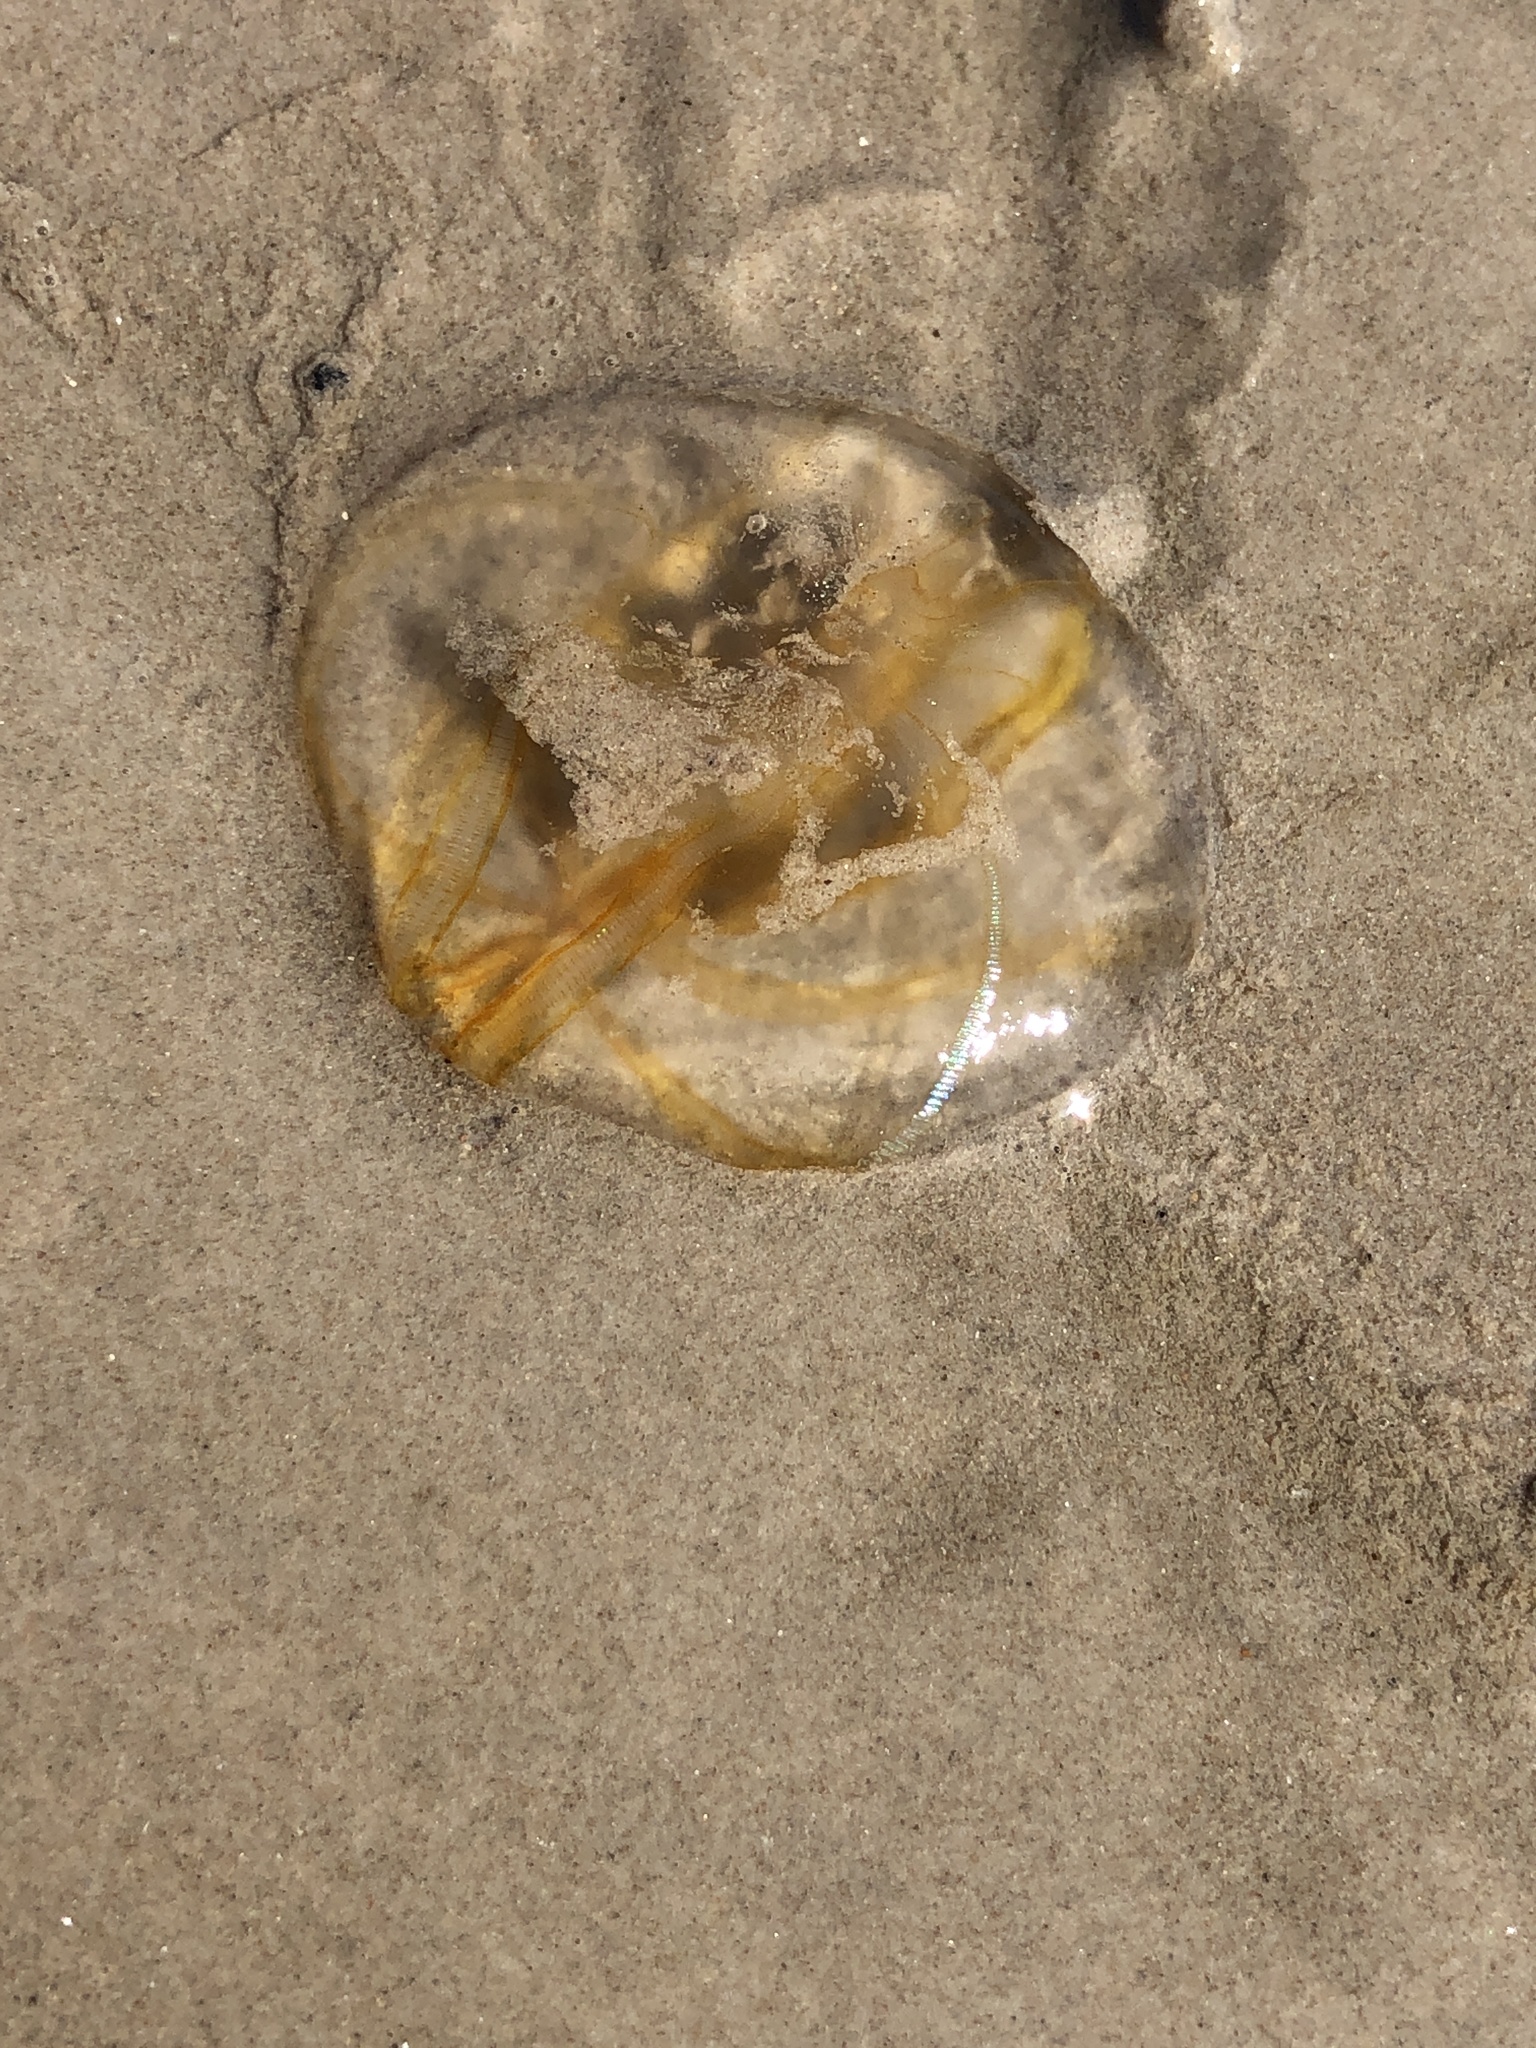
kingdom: Animalia
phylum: Ctenophora
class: Nuda
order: Beroida
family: Beroidae
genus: Beroe
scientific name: Beroe ovata
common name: Flattened helmet comb jelly
